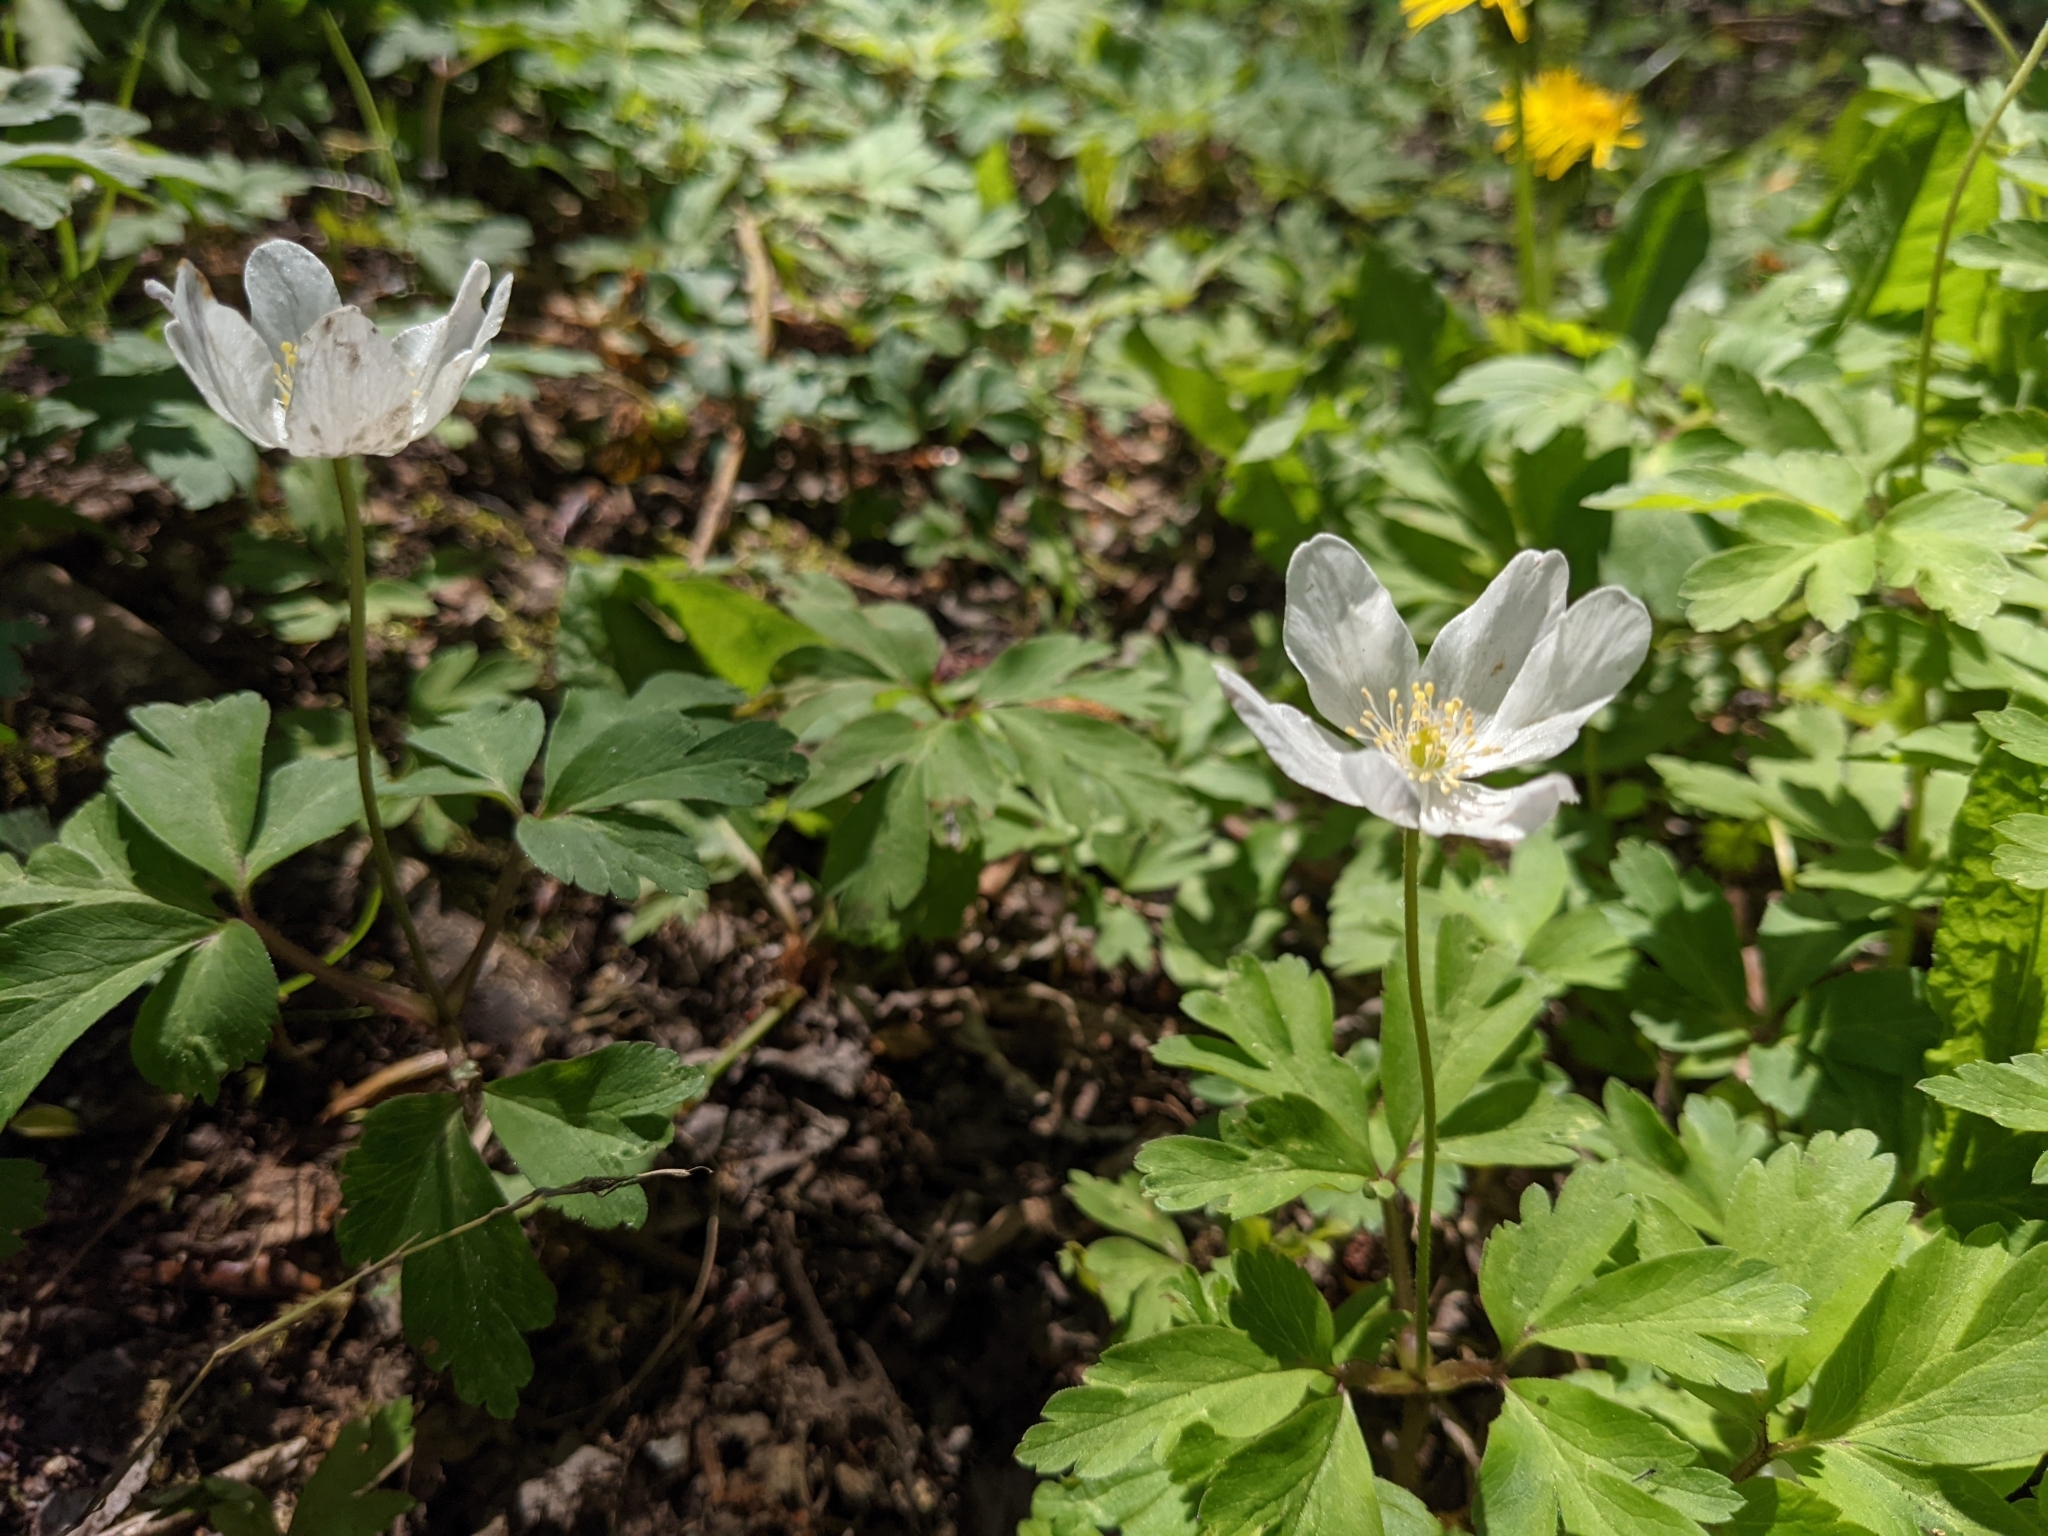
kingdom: Plantae
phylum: Tracheophyta
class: Magnoliopsida
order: Ranunculales
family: Ranunculaceae
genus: Anemone
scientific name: Anemone nemorosa
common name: Wood anemone
